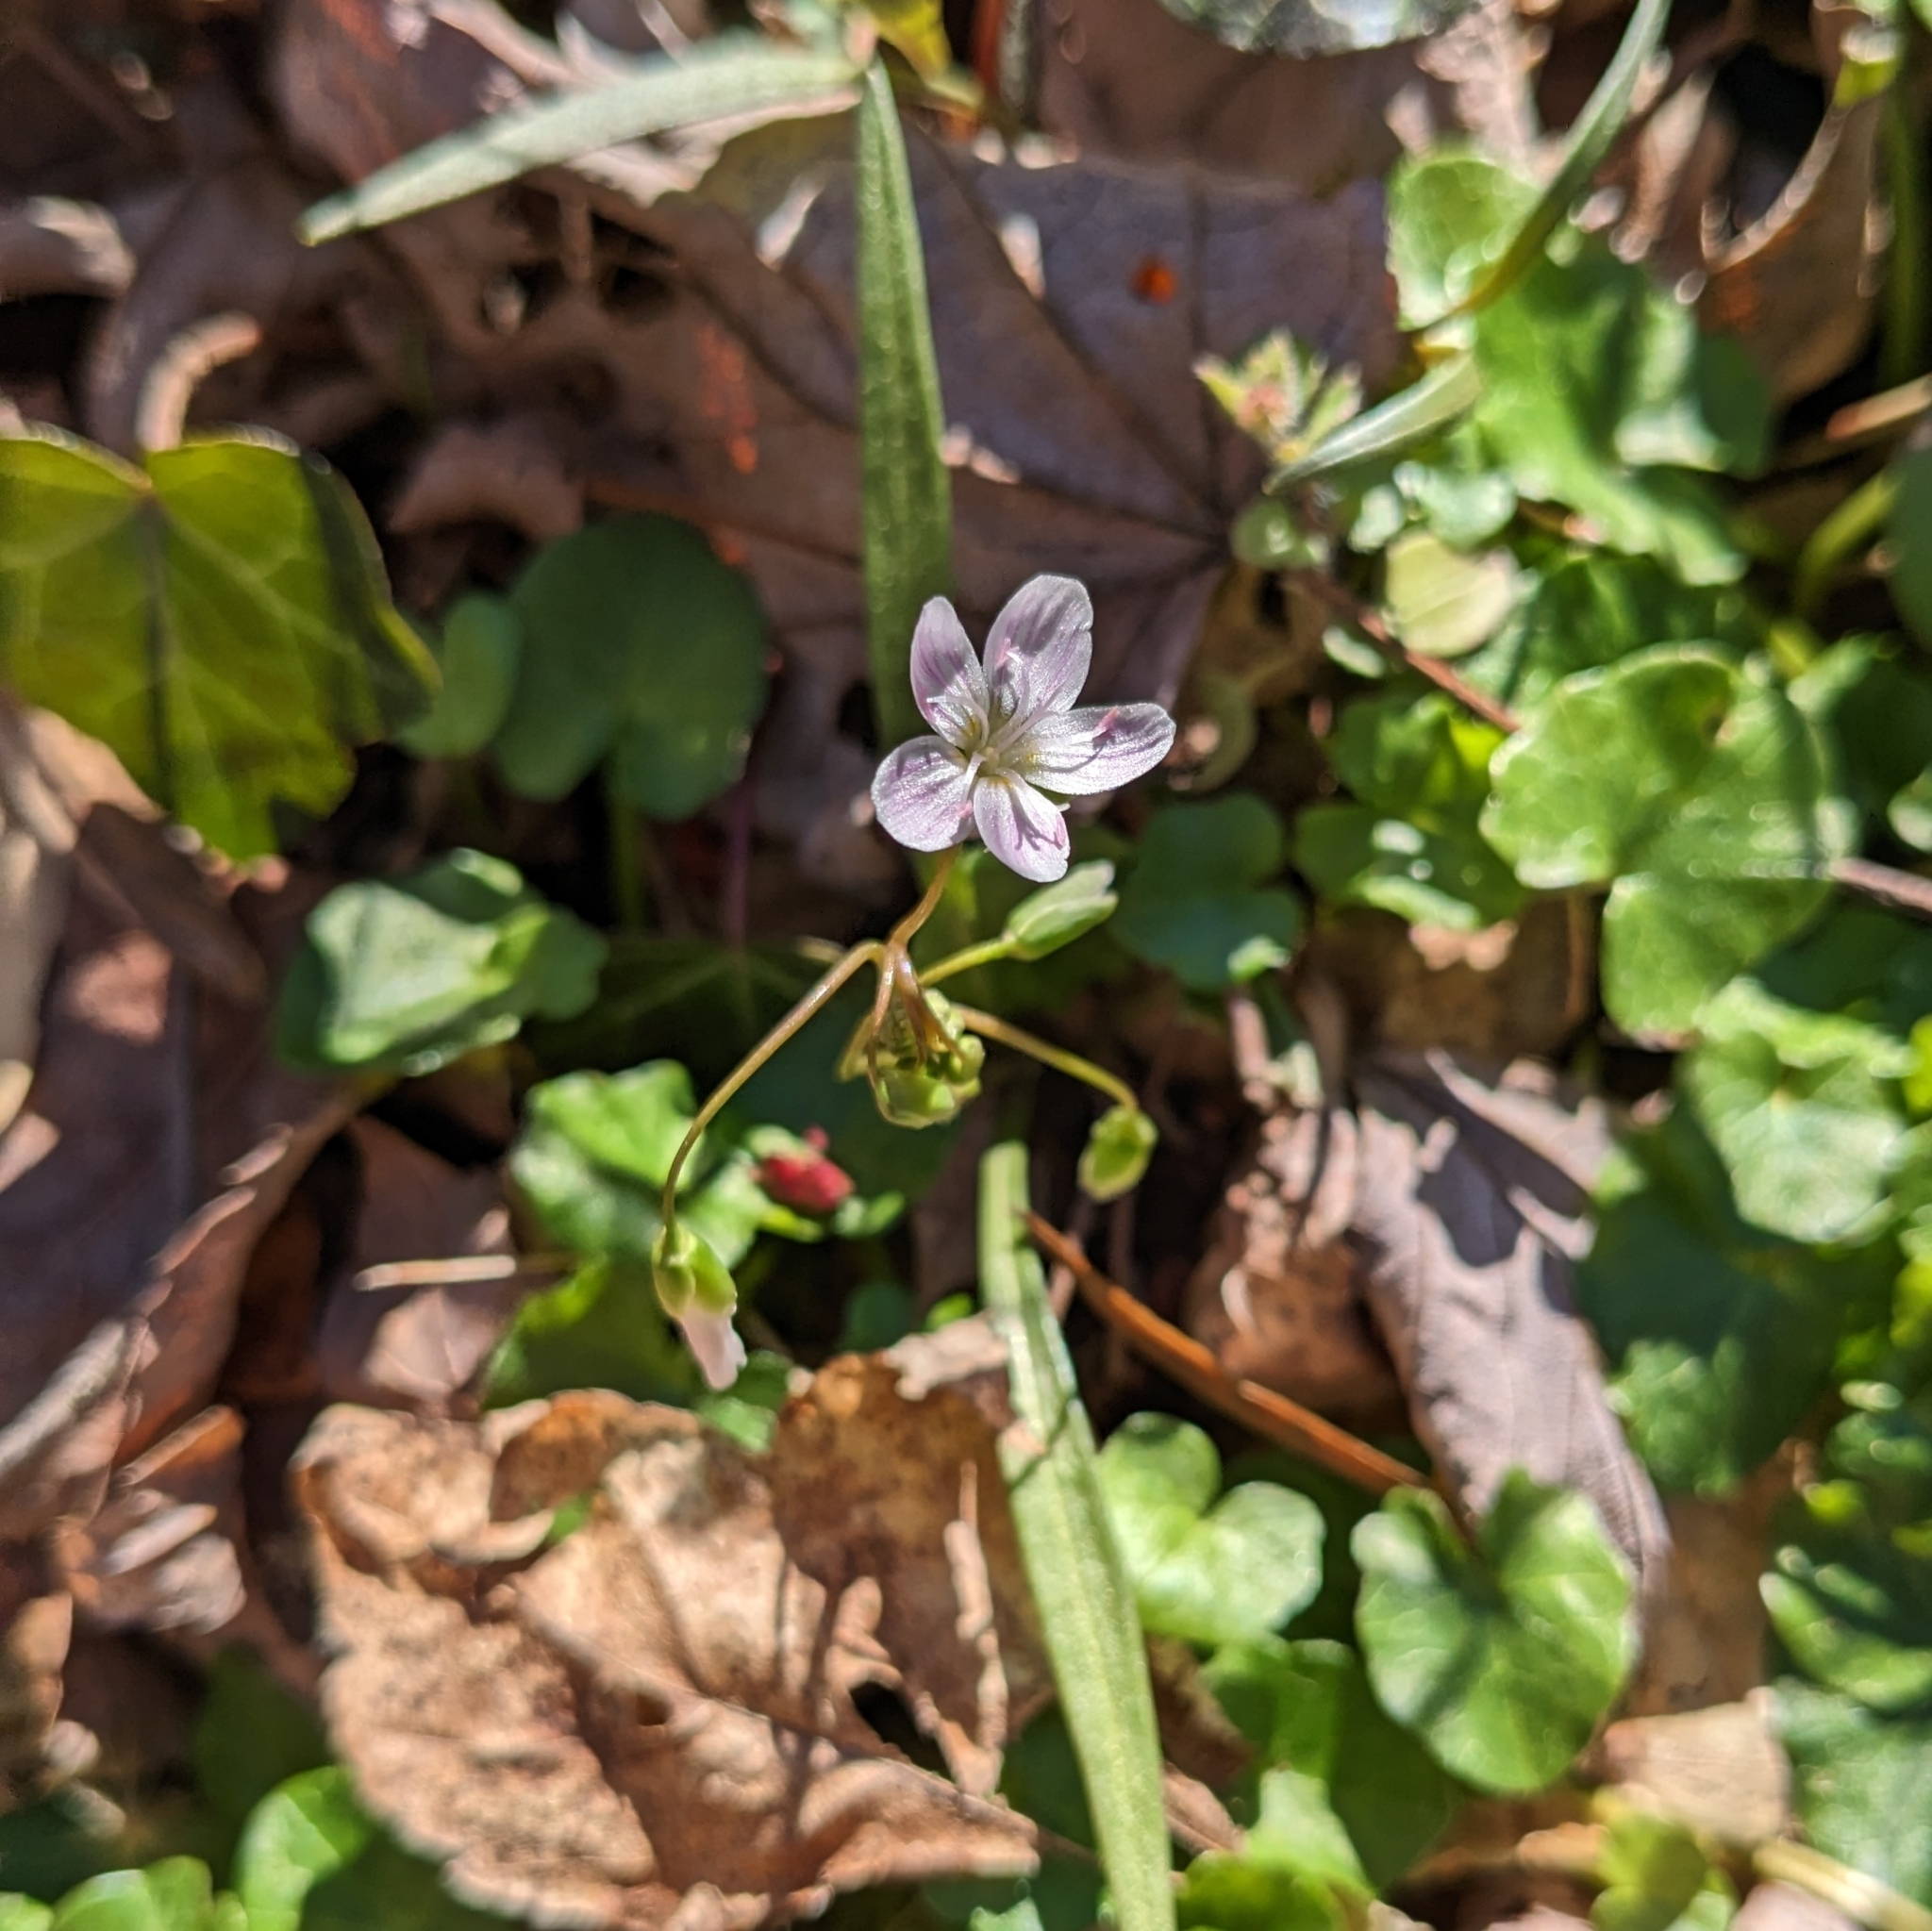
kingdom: Plantae
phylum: Tracheophyta
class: Magnoliopsida
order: Caryophyllales
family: Montiaceae
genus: Claytonia
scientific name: Claytonia virginica
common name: Virginia springbeauty
